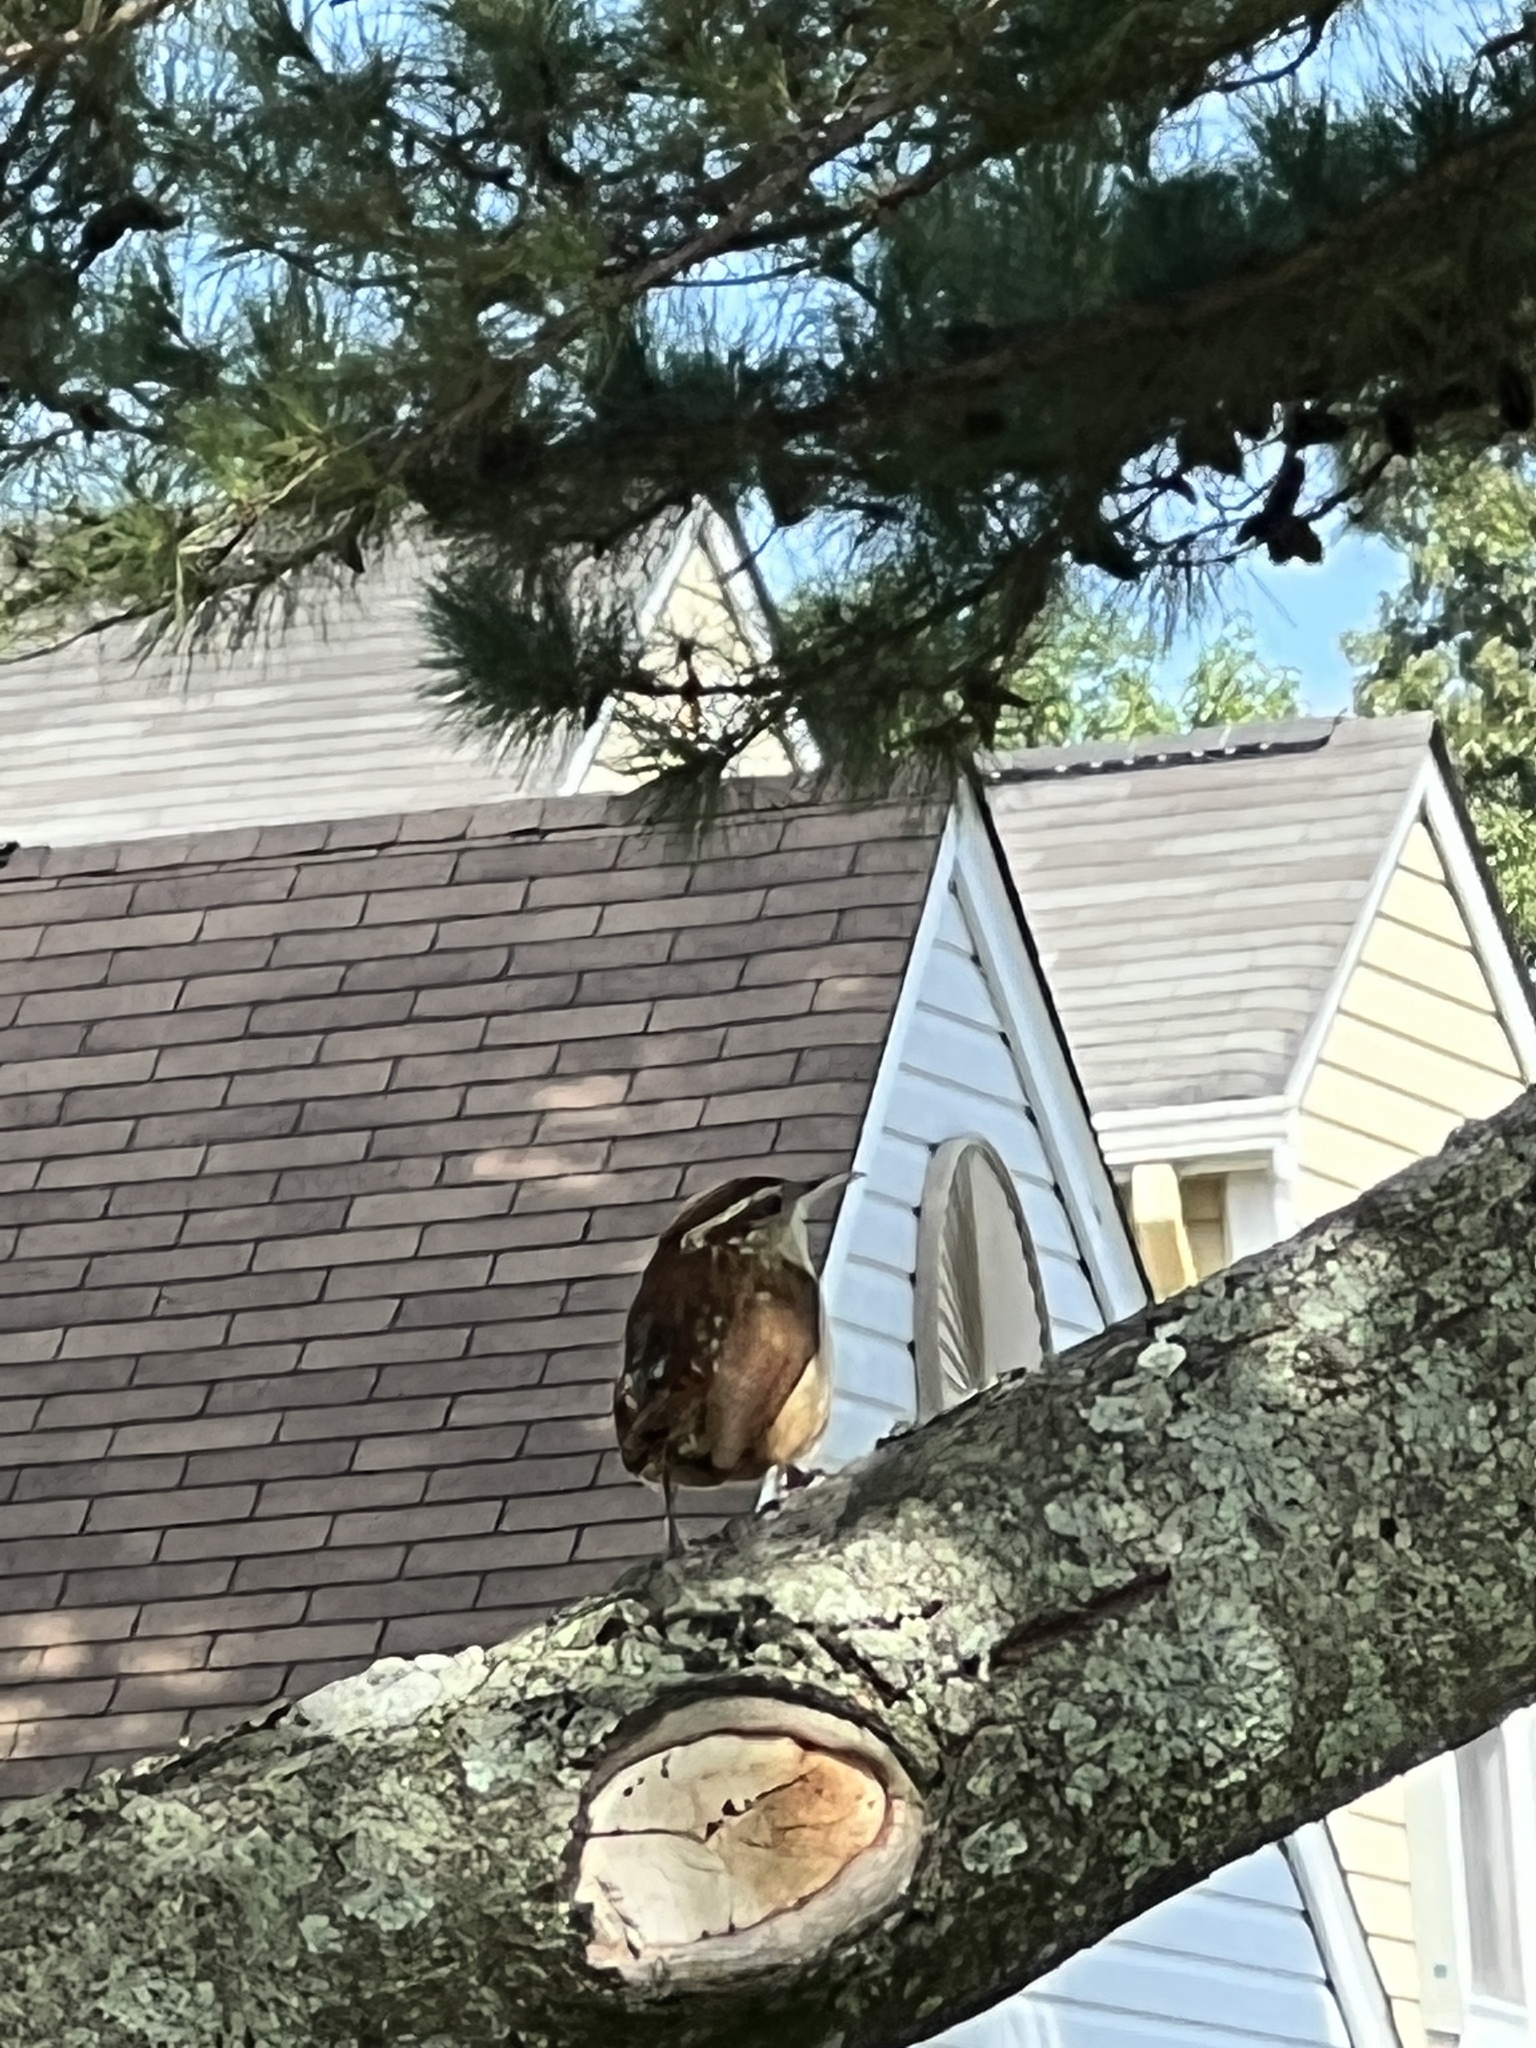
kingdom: Animalia
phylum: Chordata
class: Aves
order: Passeriformes
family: Troglodytidae
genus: Thryothorus
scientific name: Thryothorus ludovicianus
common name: Carolina wren
